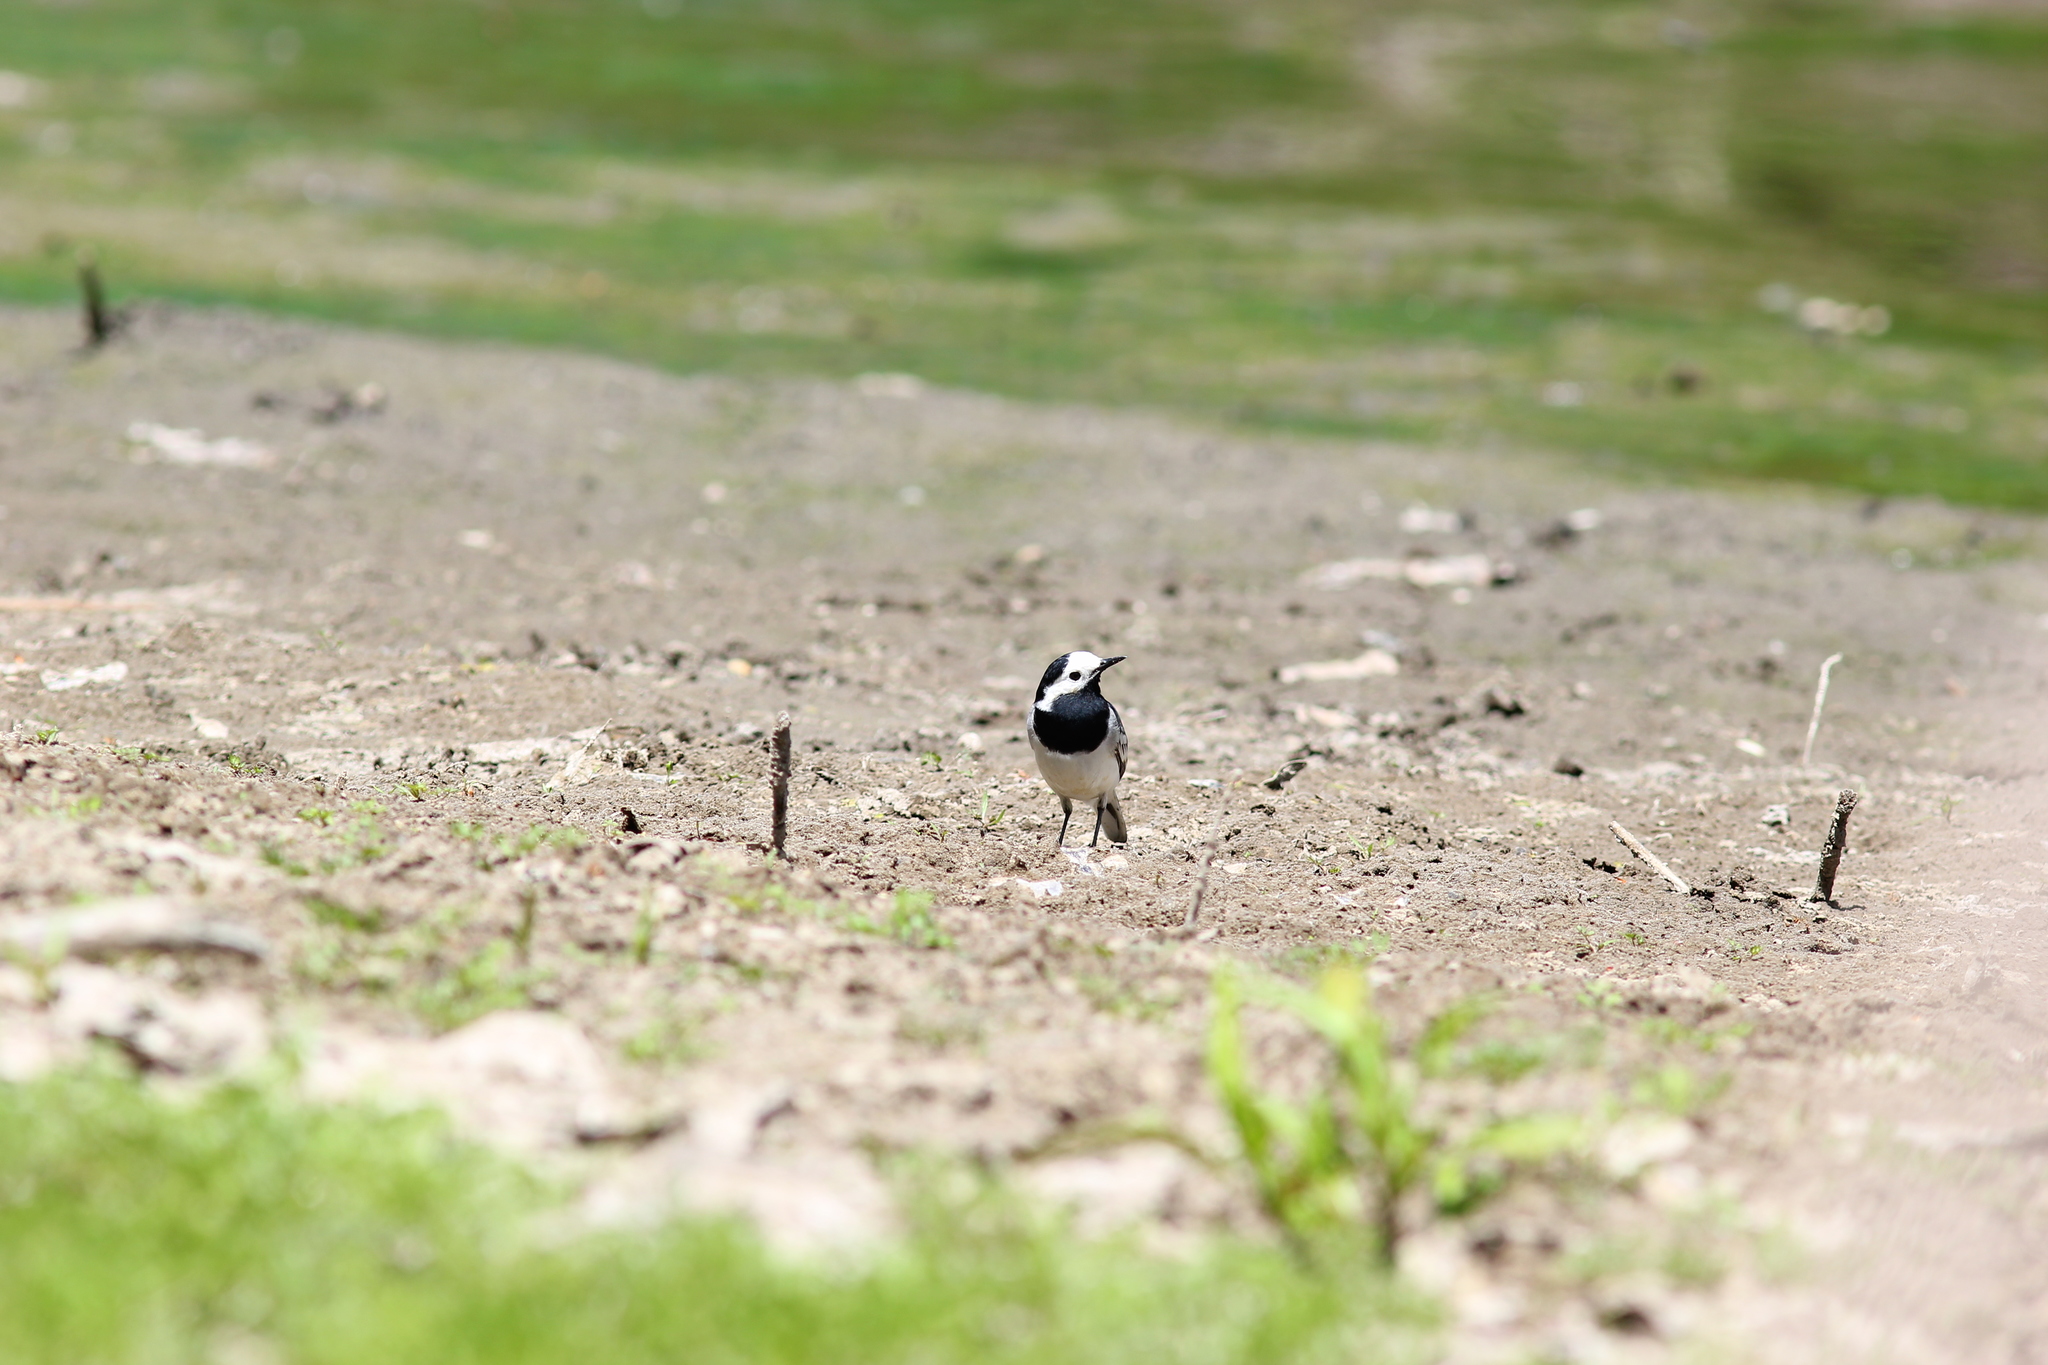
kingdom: Animalia
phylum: Chordata
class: Aves
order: Passeriformes
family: Motacillidae
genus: Motacilla
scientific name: Motacilla alba
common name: White wagtail
